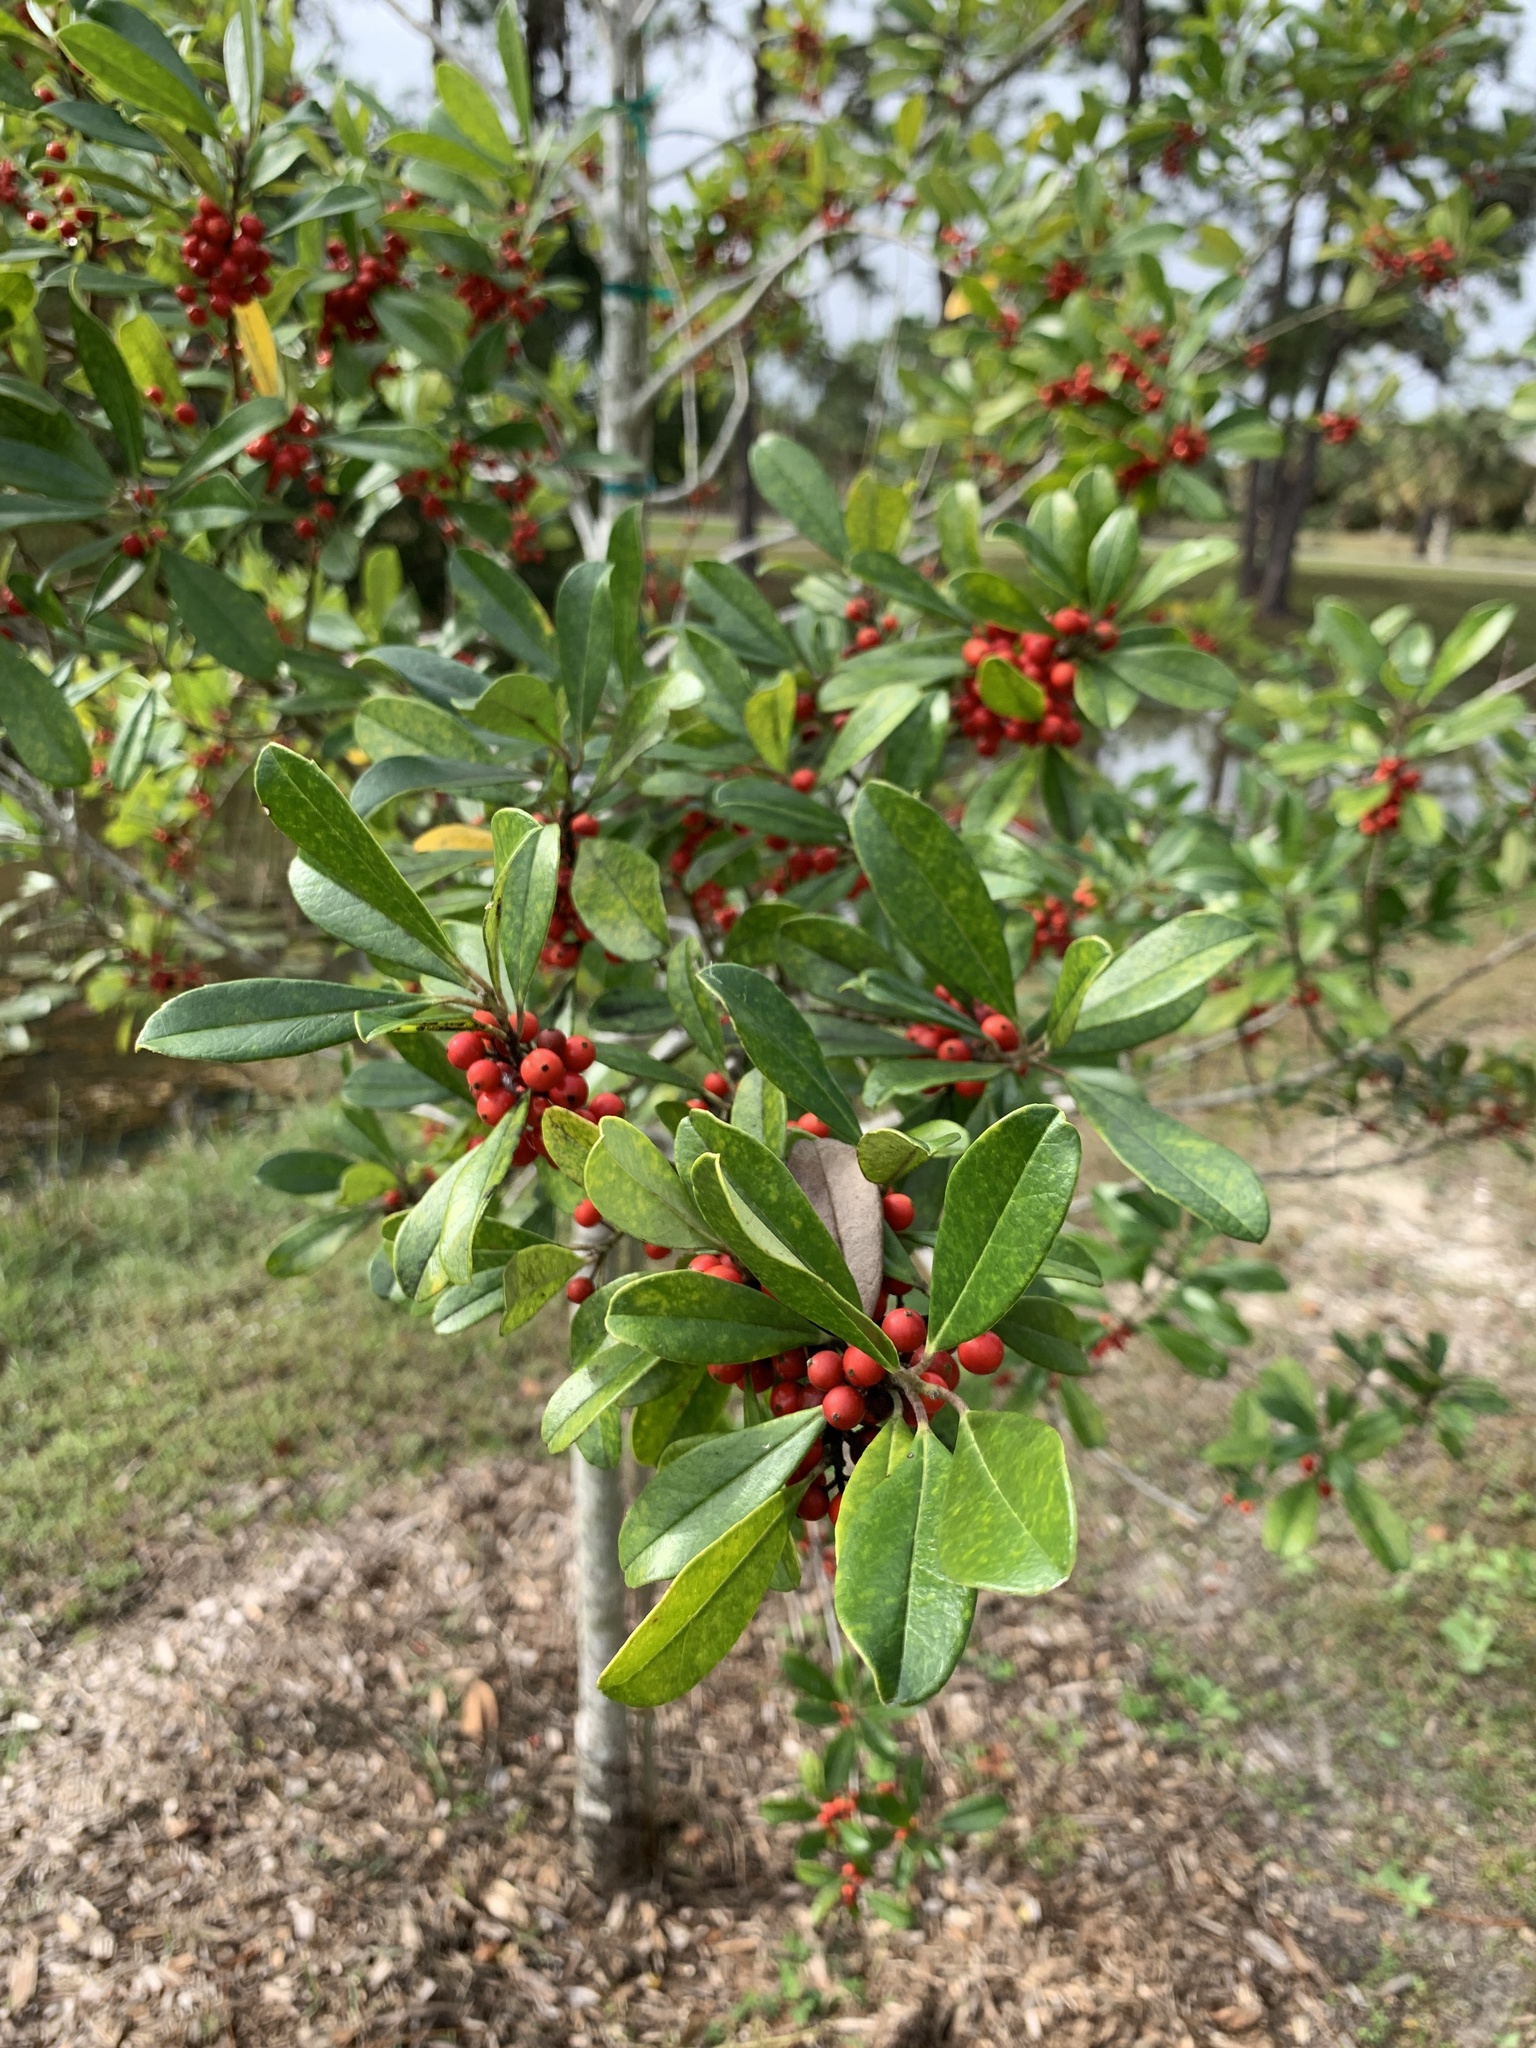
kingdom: Plantae
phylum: Tracheophyta
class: Magnoliopsida
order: Aquifoliales
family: Aquifoliaceae
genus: Ilex
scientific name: Ilex cassine
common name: Dahoon
